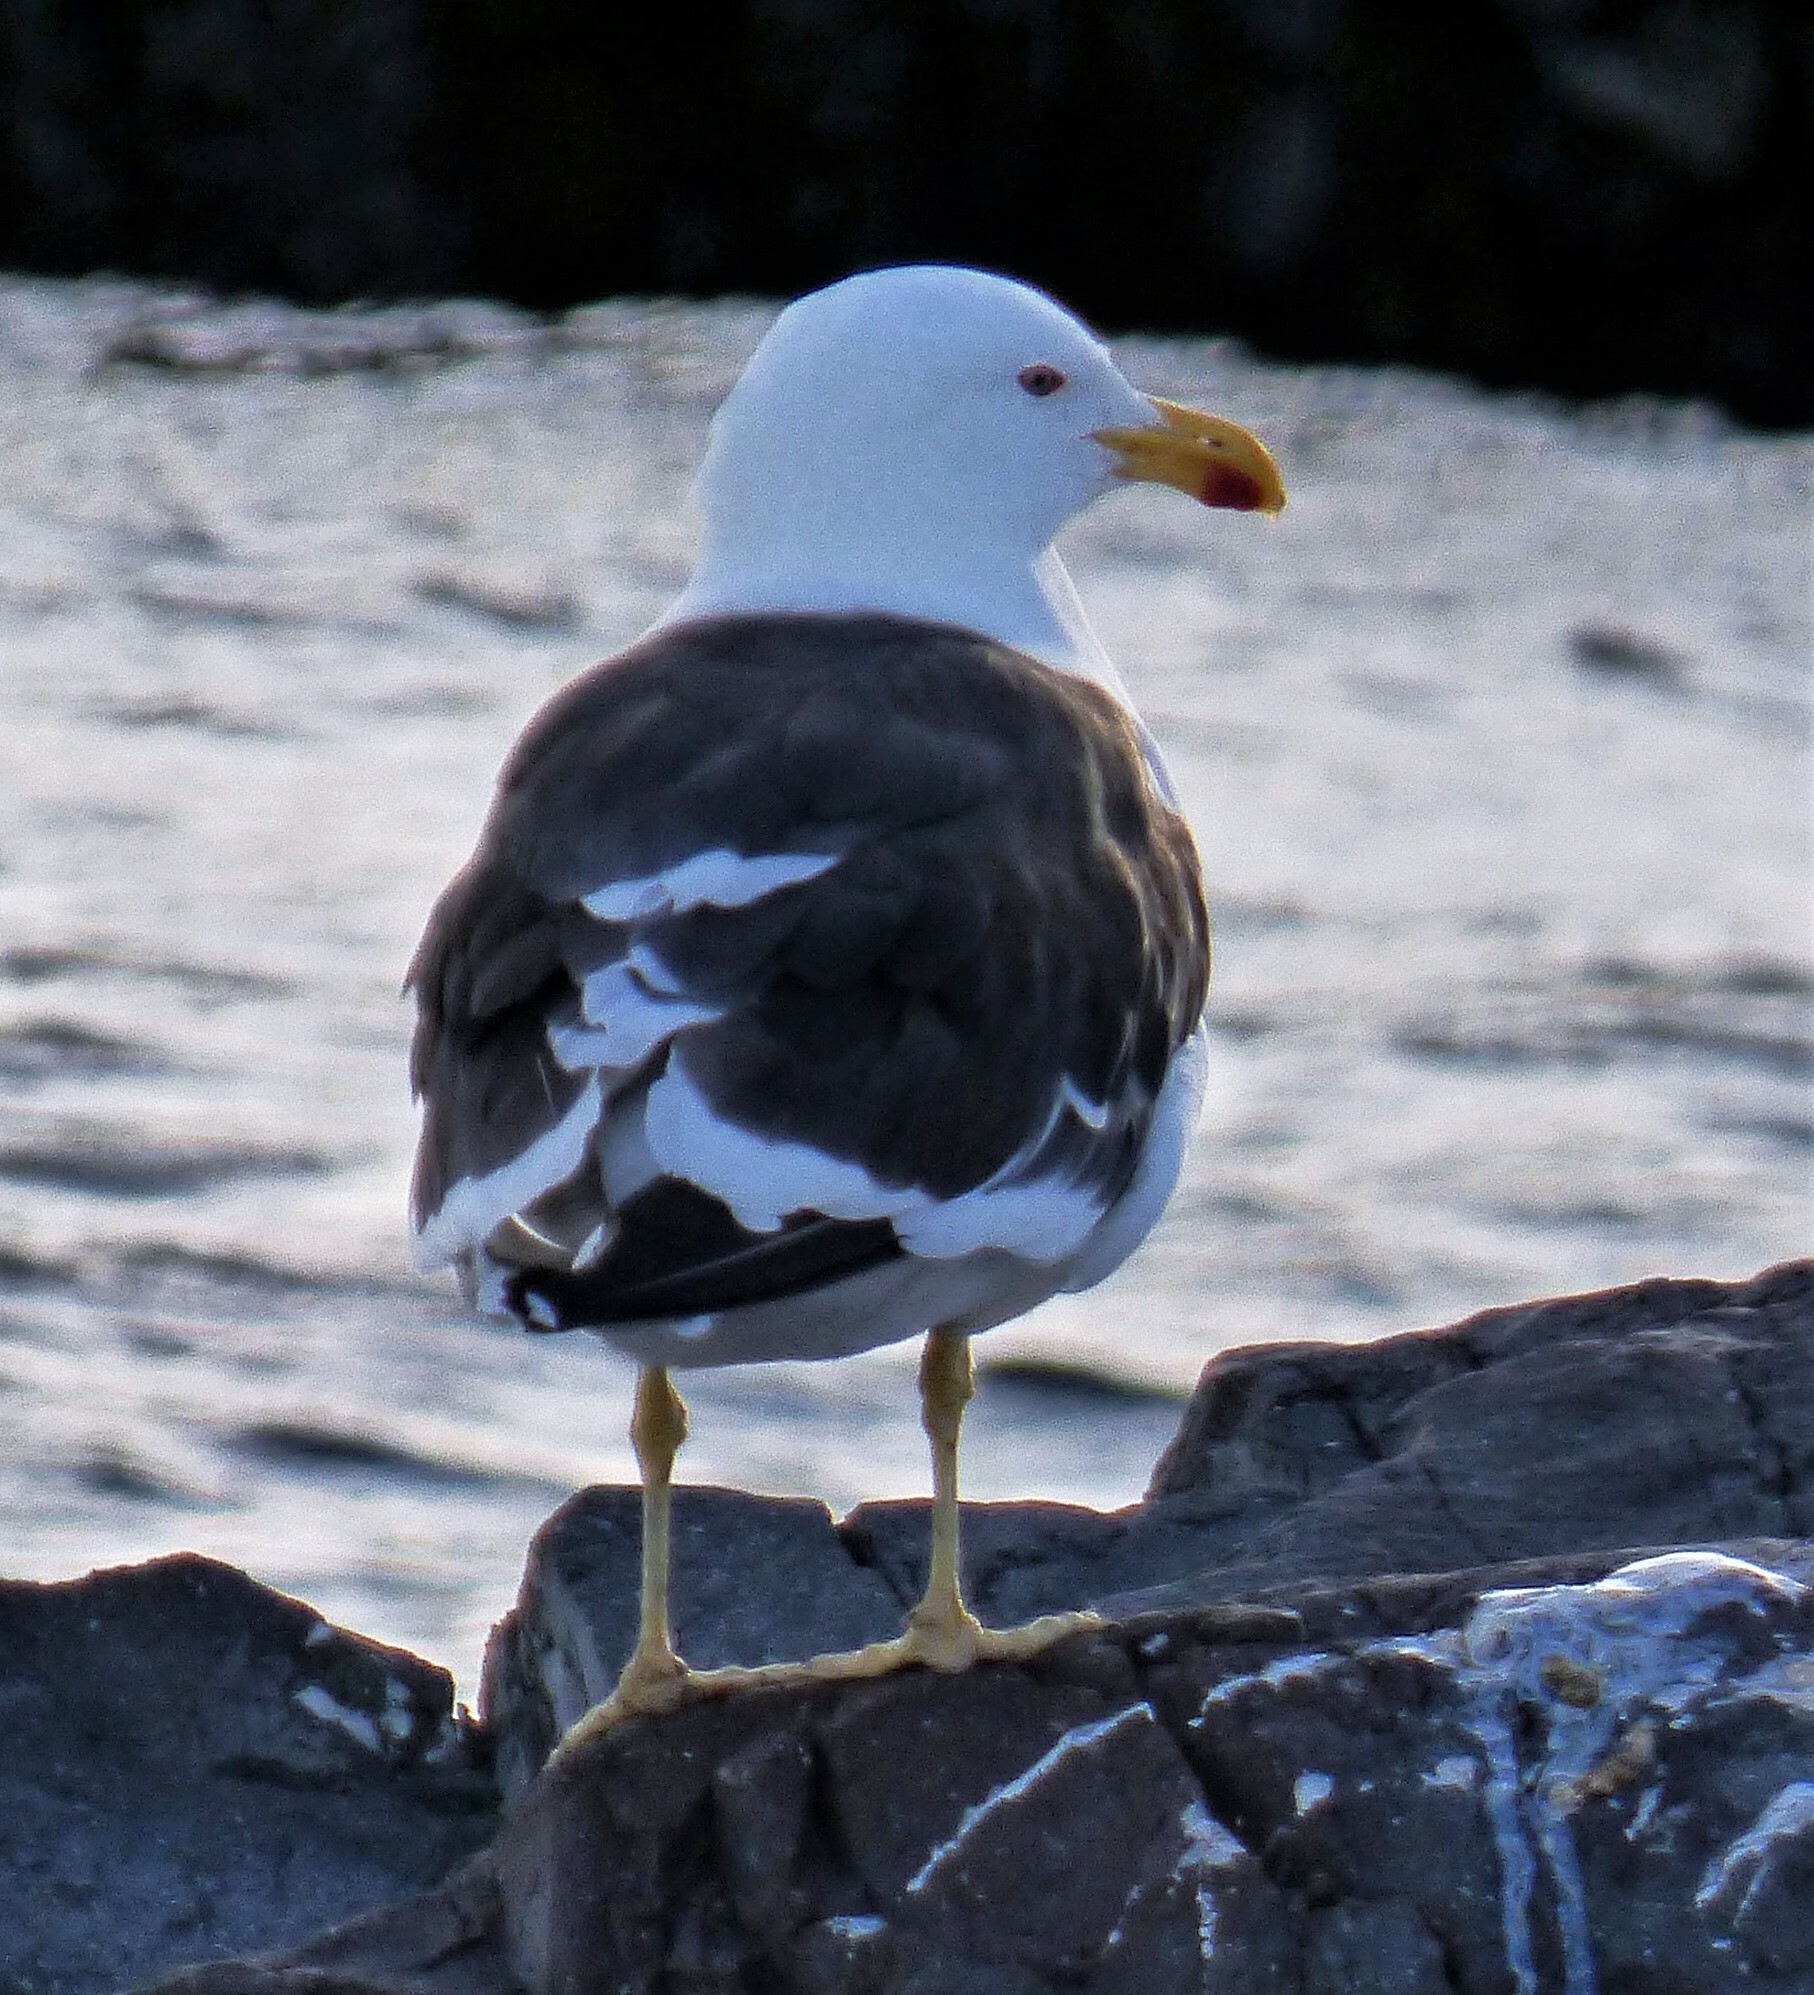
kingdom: Animalia
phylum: Chordata
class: Aves
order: Charadriiformes
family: Laridae
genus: Larus
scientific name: Larus dominicanus
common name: Kelp gull
